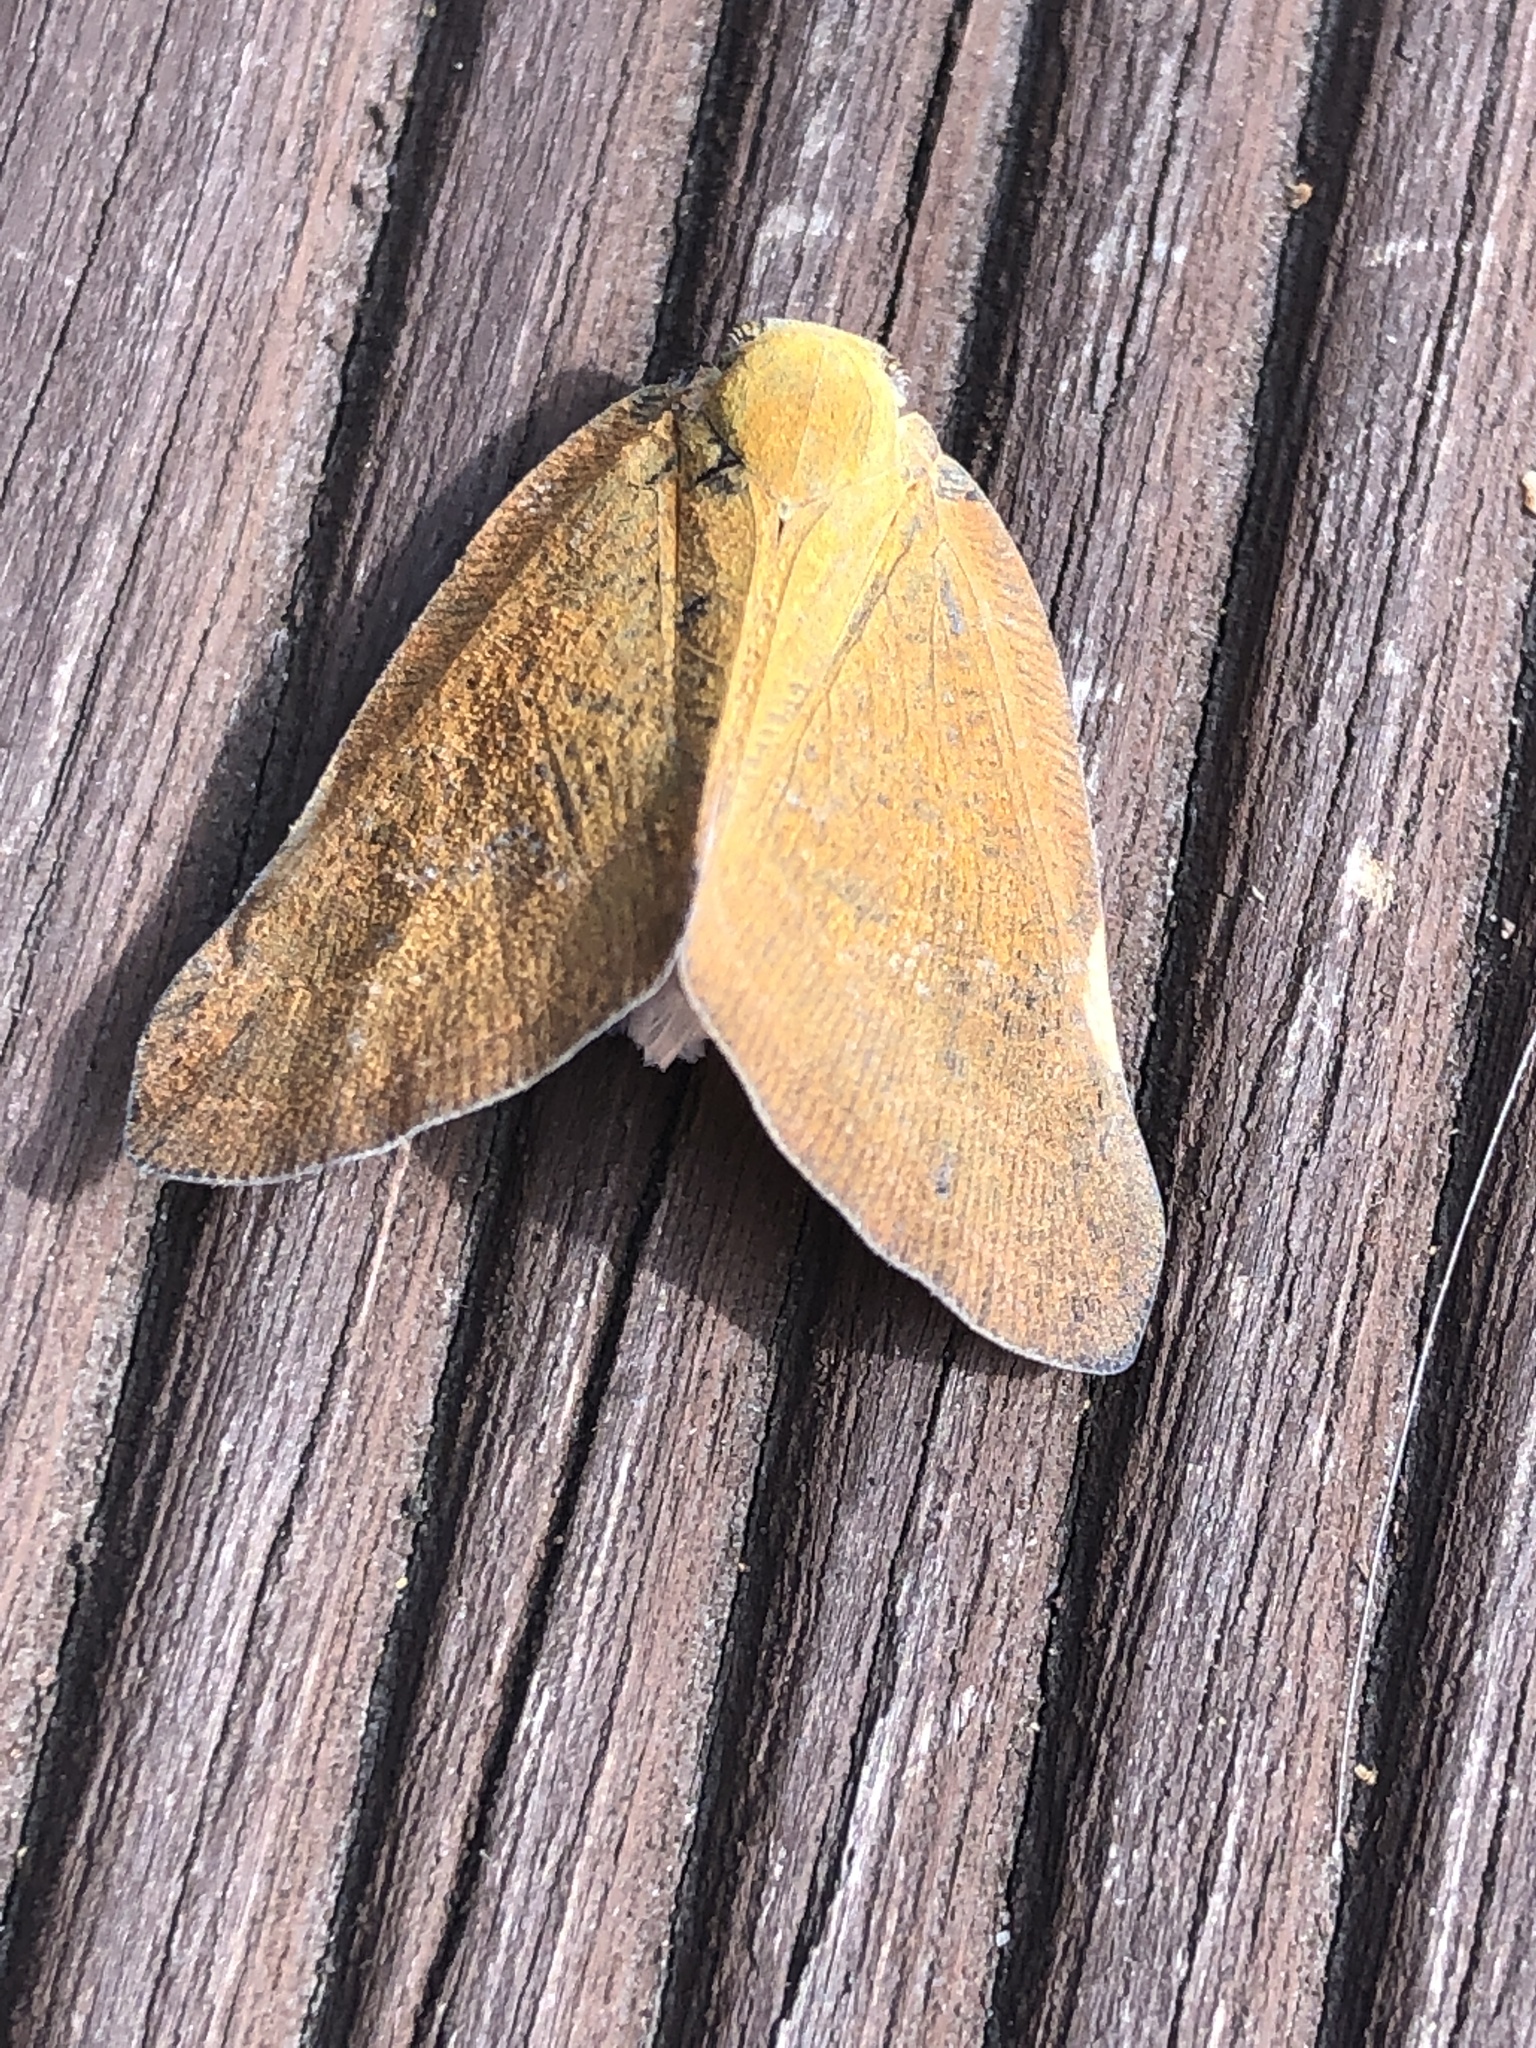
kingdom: Animalia
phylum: Arthropoda
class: Insecta
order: Hemiptera
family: Ricaniidae
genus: Ricanula
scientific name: Ricanula sublimata
